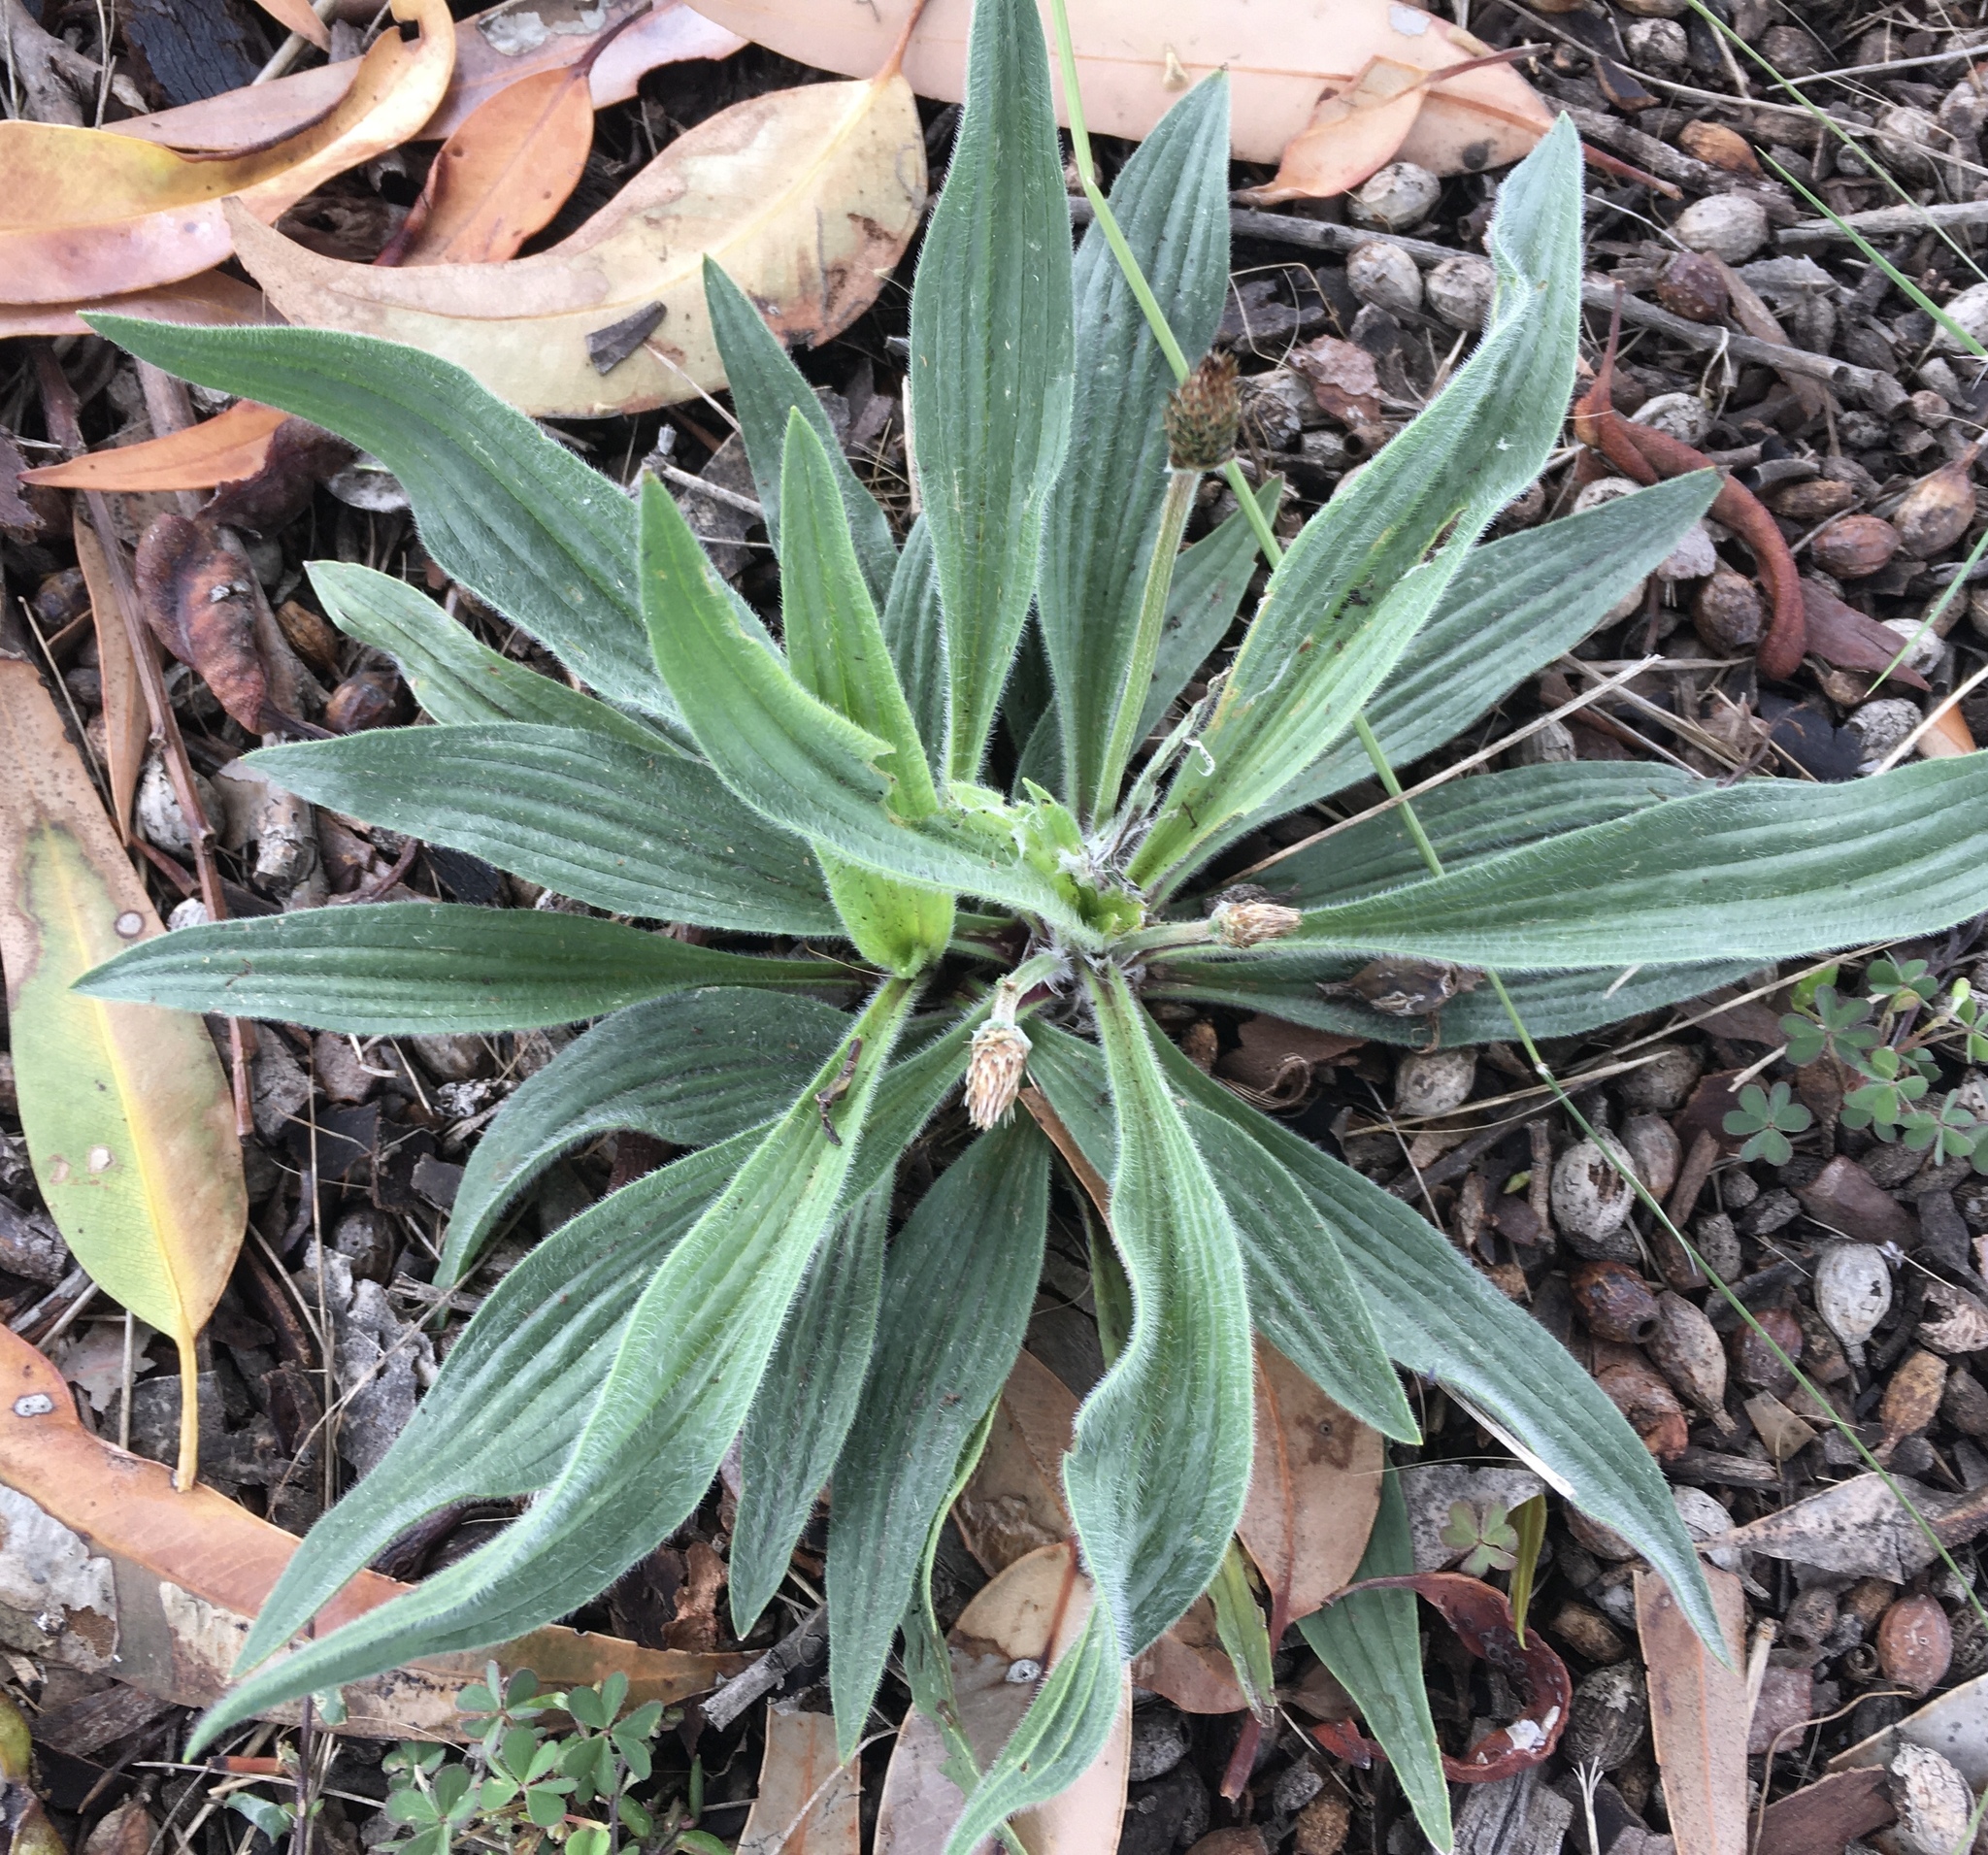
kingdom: Plantae
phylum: Tracheophyta
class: Magnoliopsida
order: Lamiales
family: Plantaginaceae
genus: Plantago
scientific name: Plantago lanceolata
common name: Ribwort plantain
